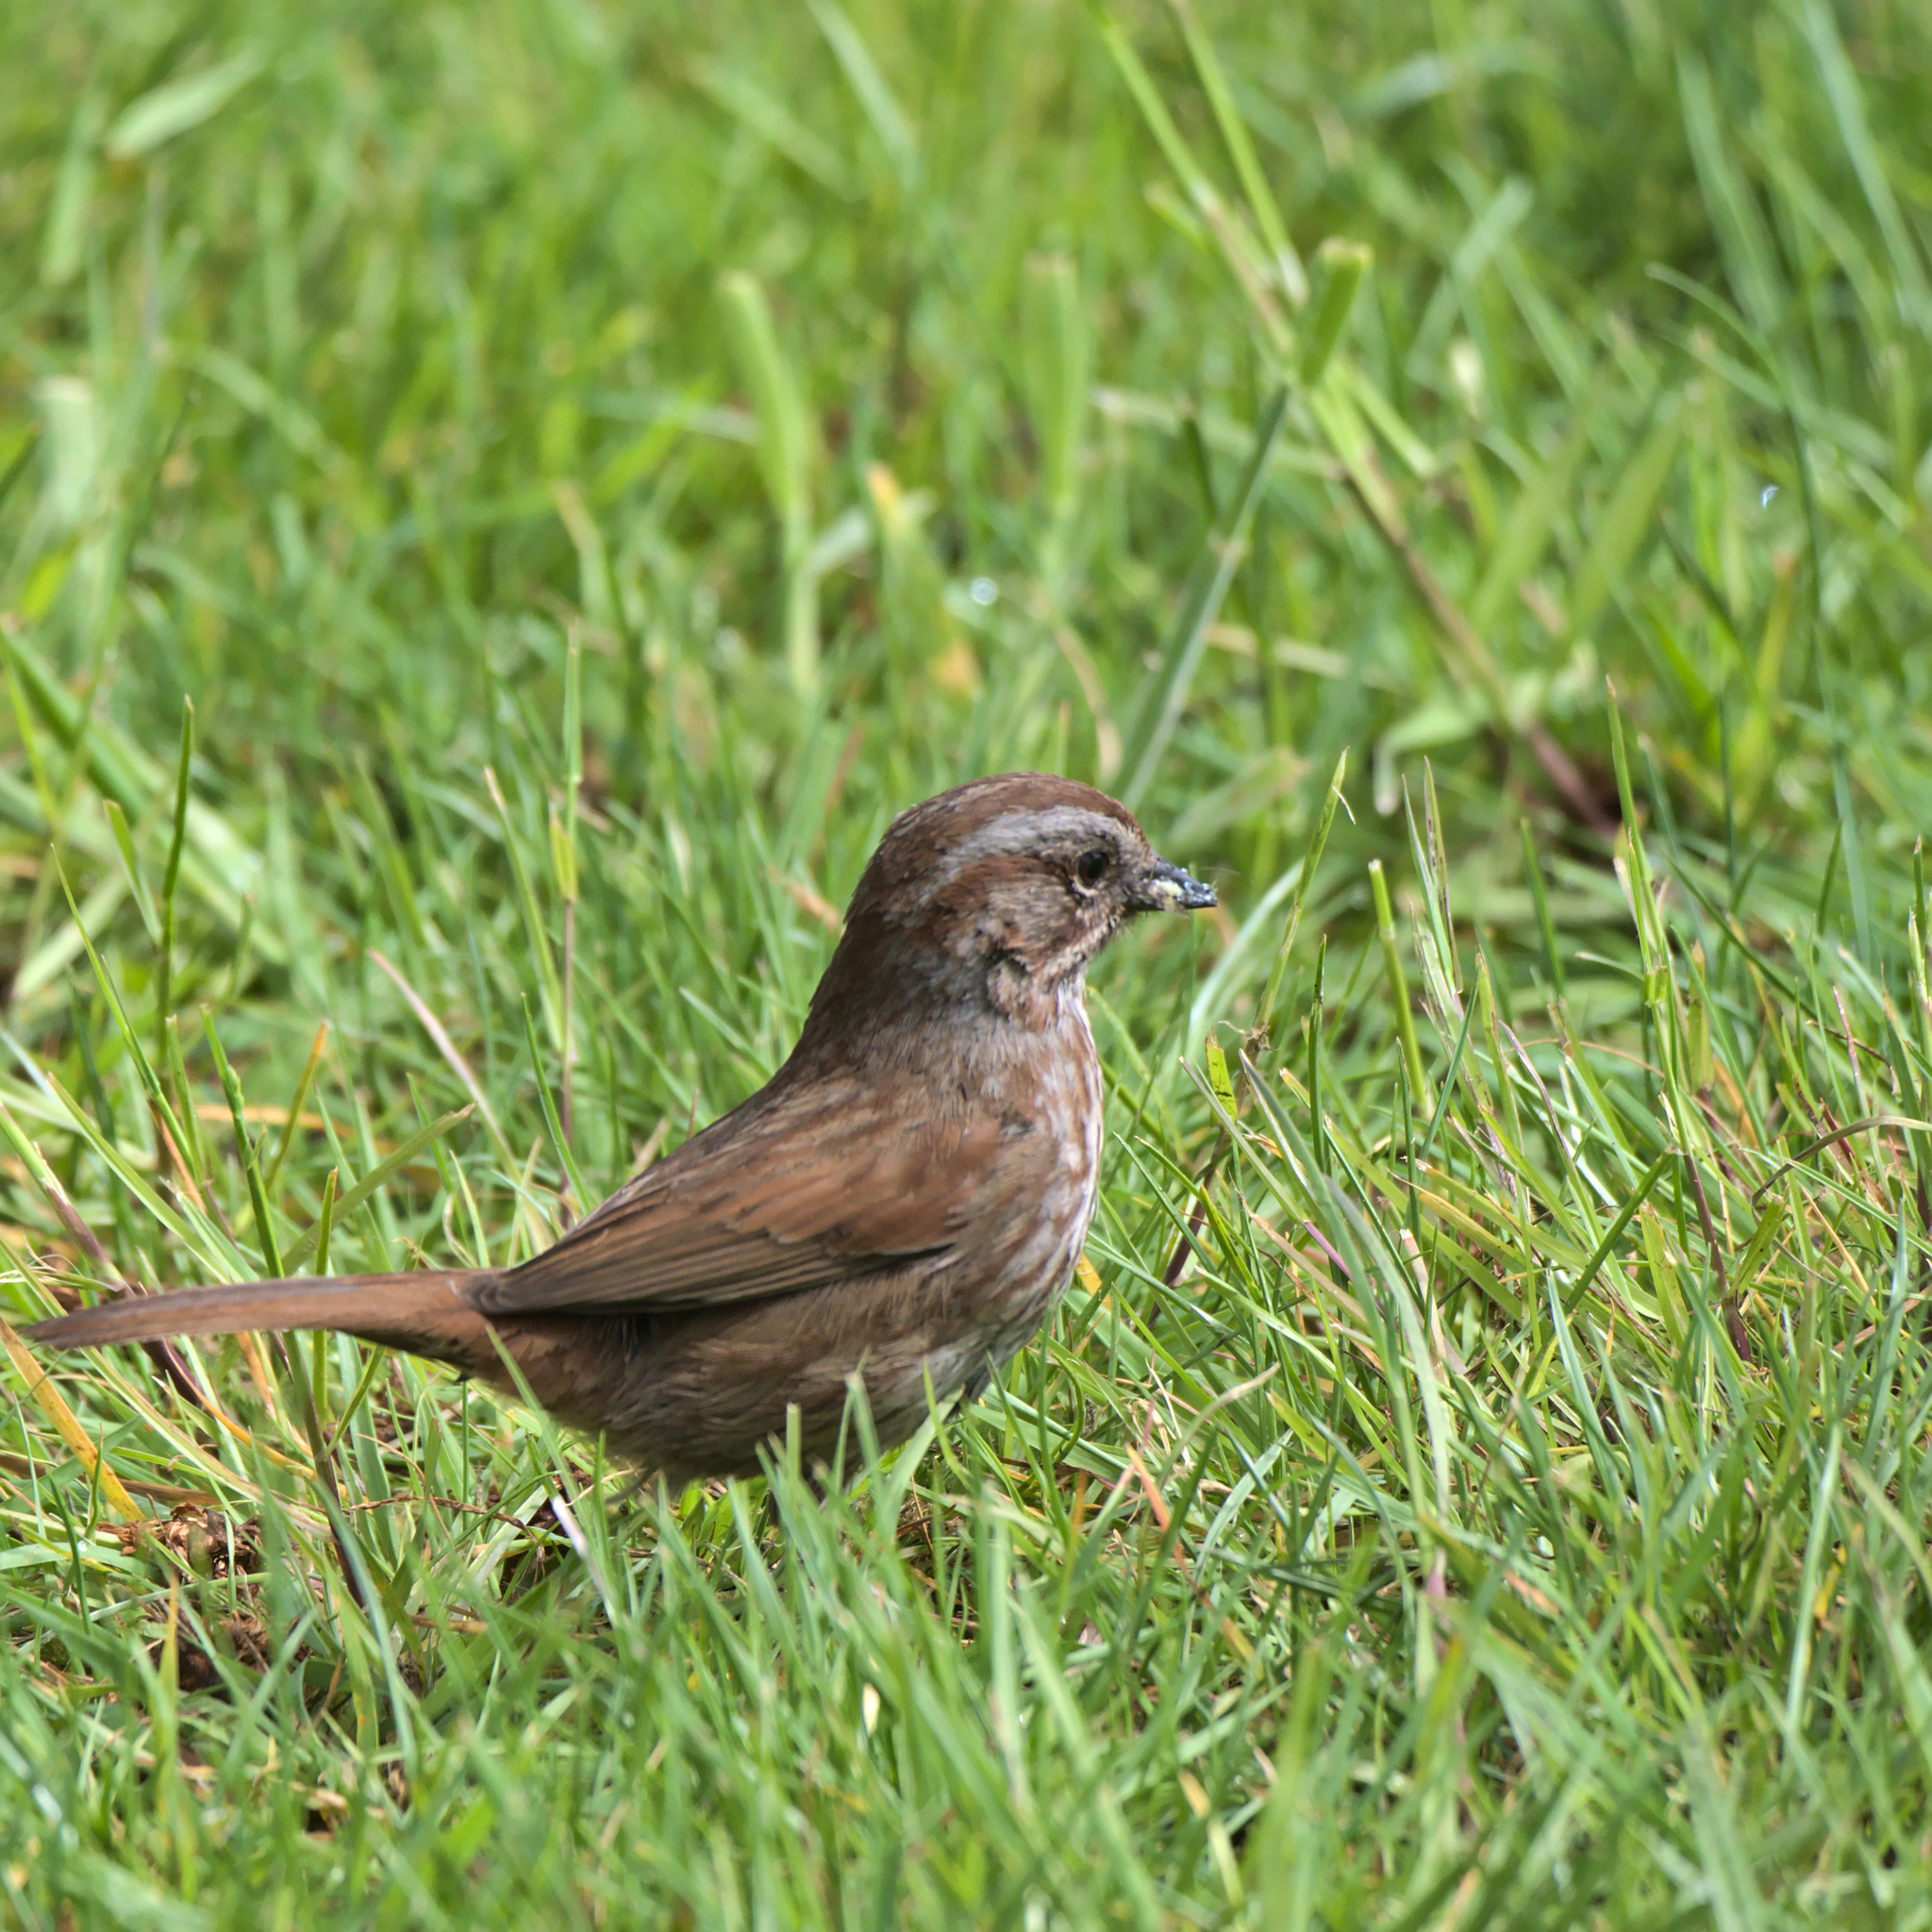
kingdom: Animalia
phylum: Chordata
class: Aves
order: Passeriformes
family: Passerellidae
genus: Melospiza
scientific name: Melospiza melodia
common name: Song sparrow
